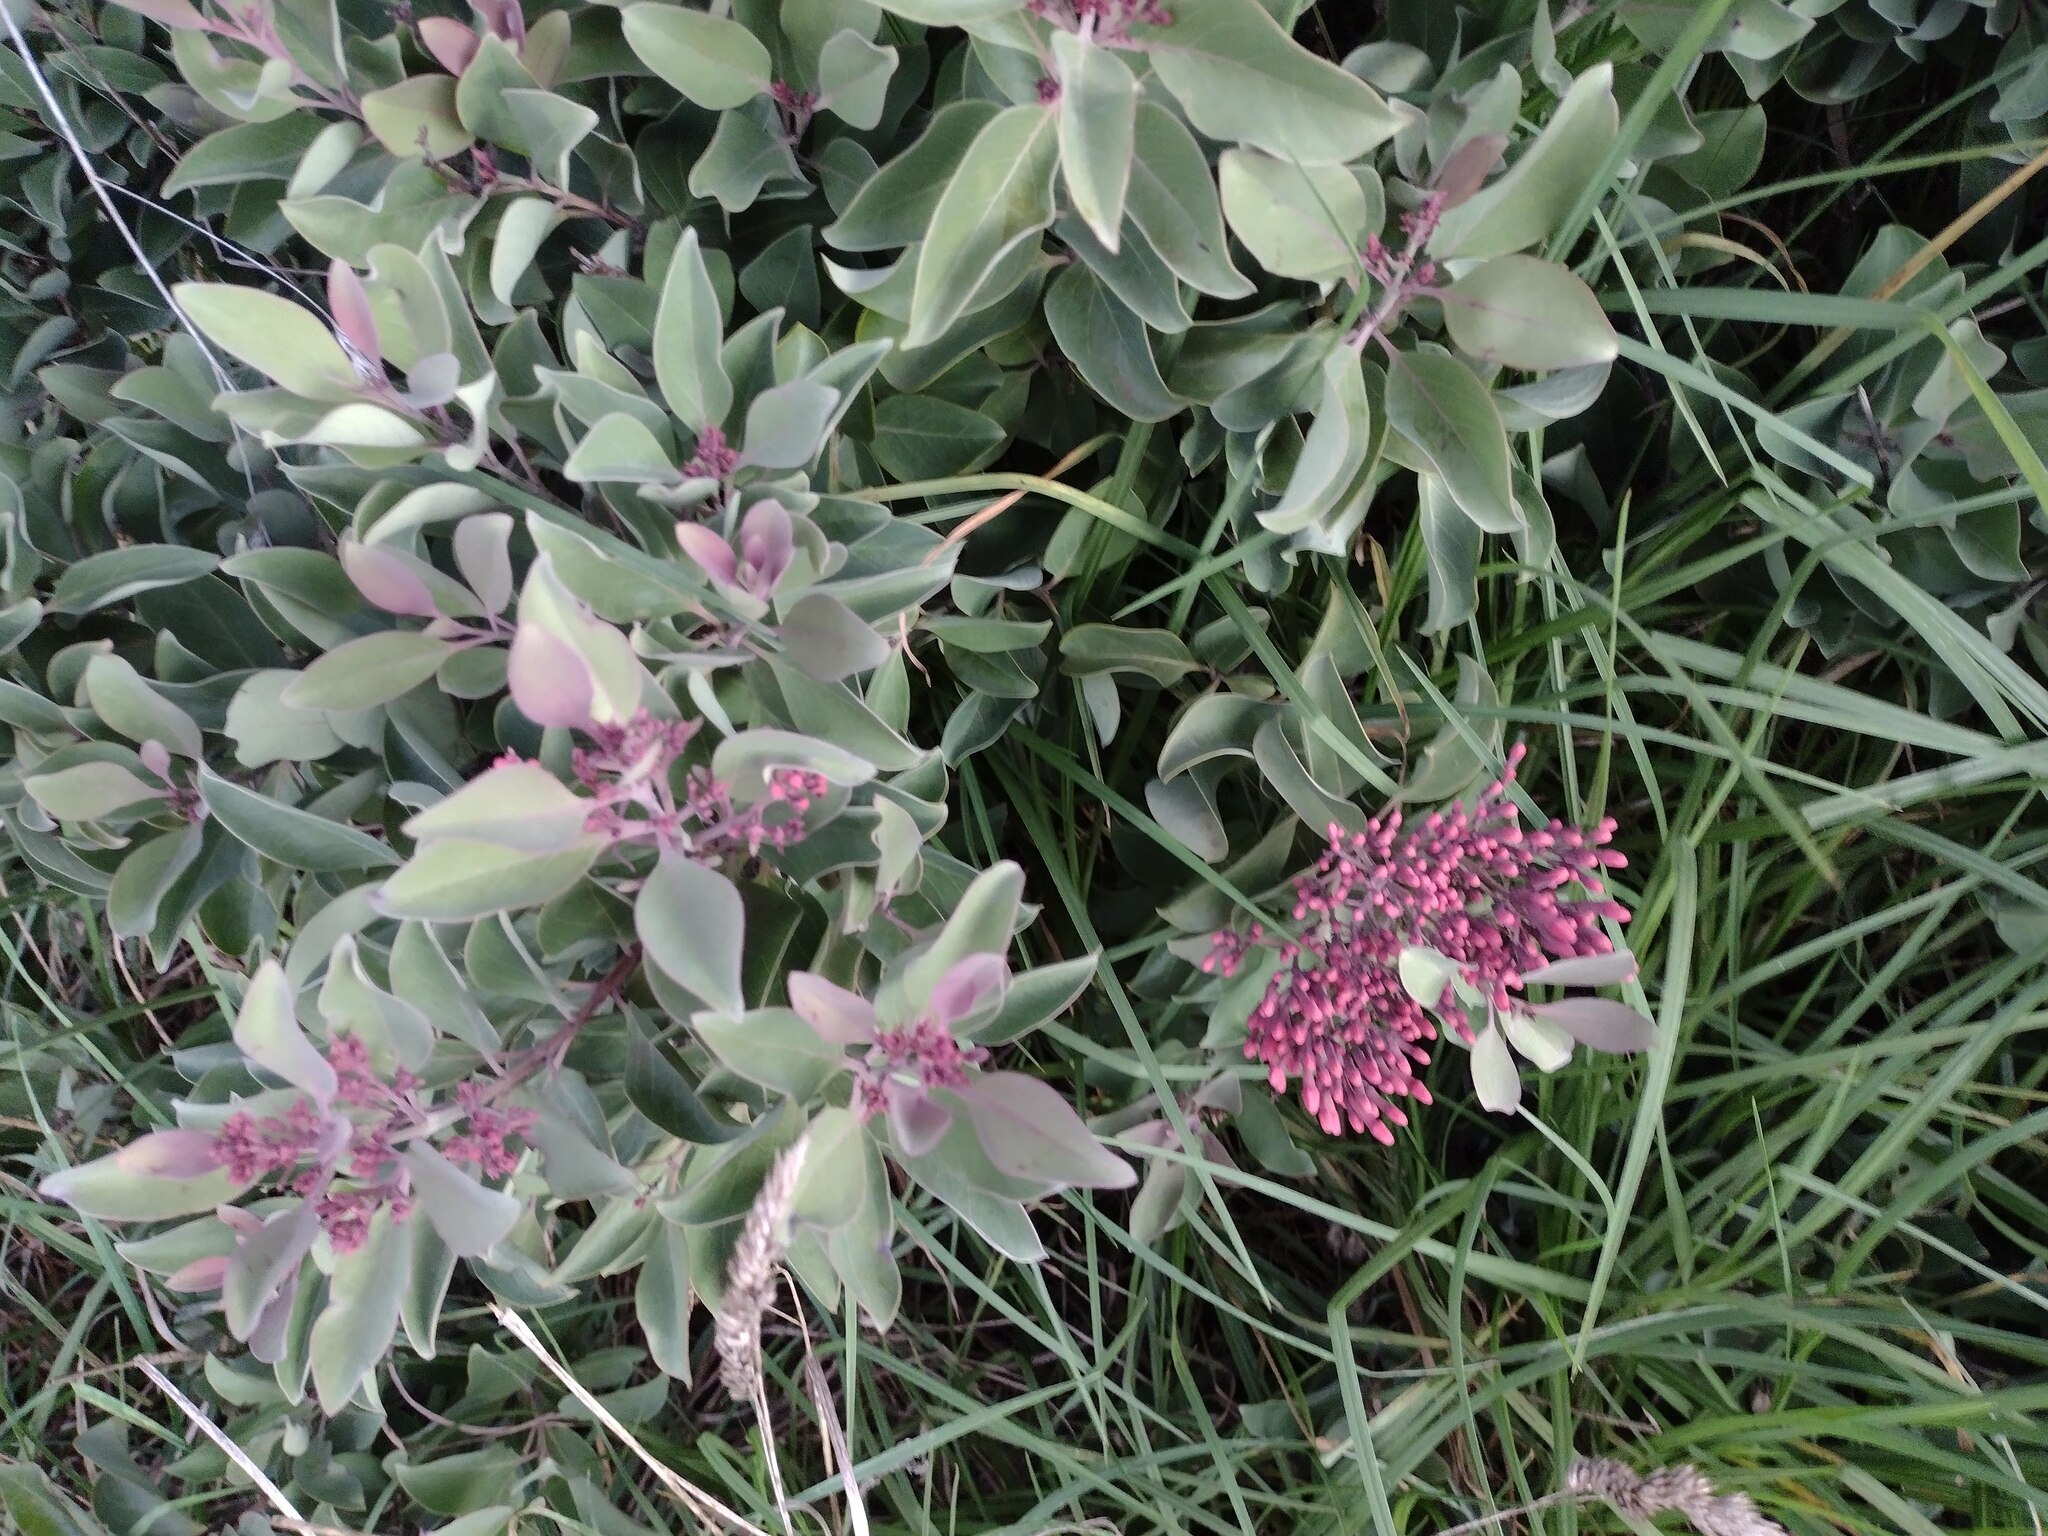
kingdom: Plantae
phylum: Tracheophyta
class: Magnoliopsida
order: Santalales
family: Santalaceae
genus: Santalum
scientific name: Santalum haleakalae
